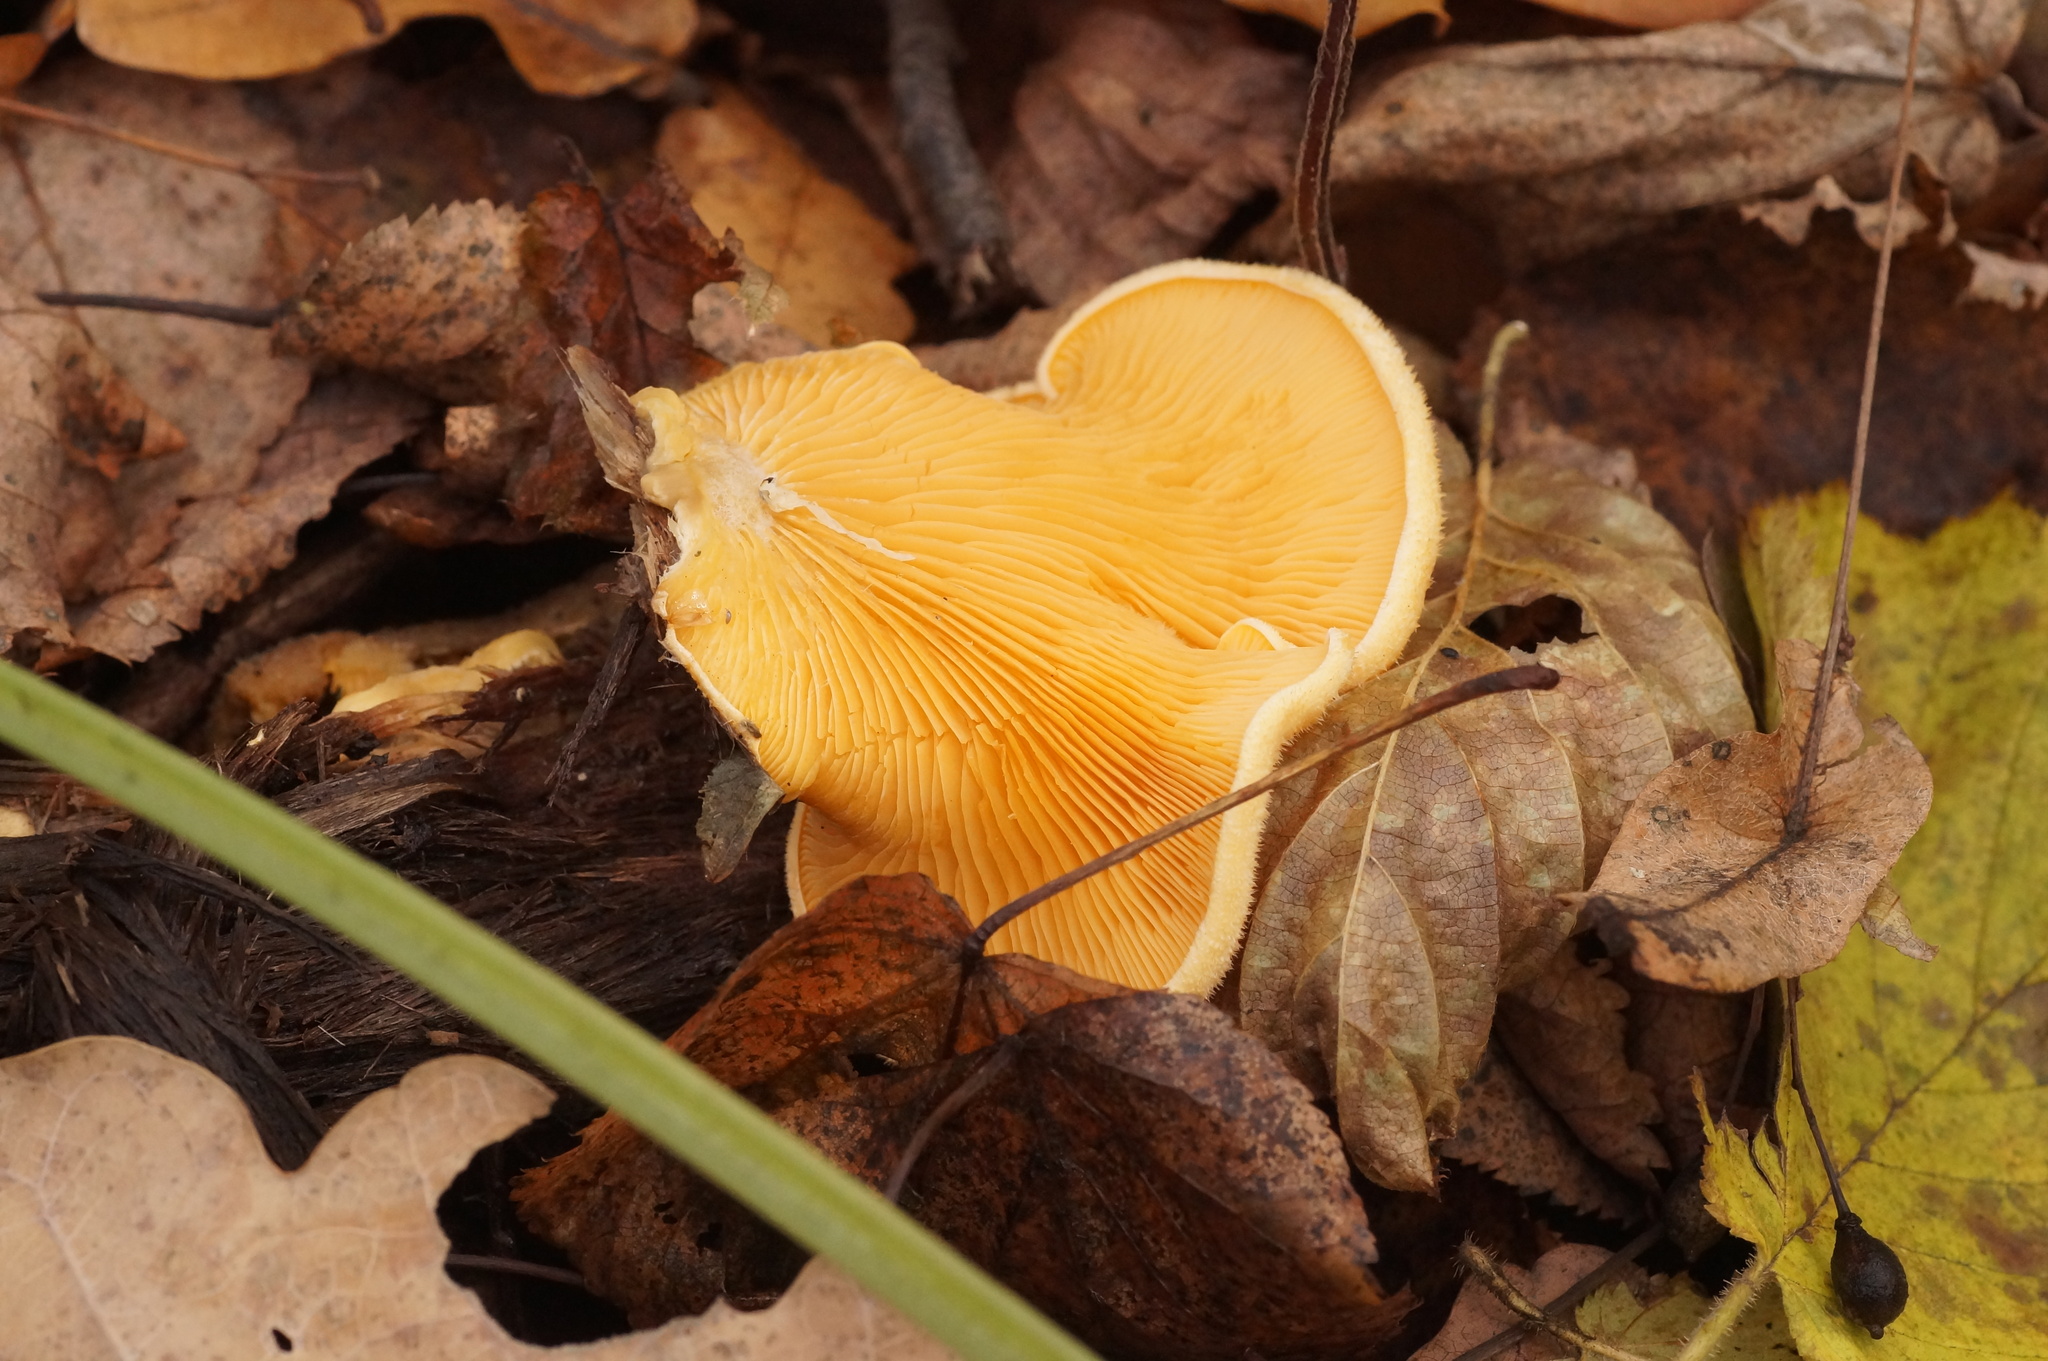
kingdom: Fungi
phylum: Basidiomycota
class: Agaricomycetes
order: Agaricales
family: Phyllotopsidaceae
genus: Phyllotopsis
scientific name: Phyllotopsis nidulans
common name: Orange mock oyster
